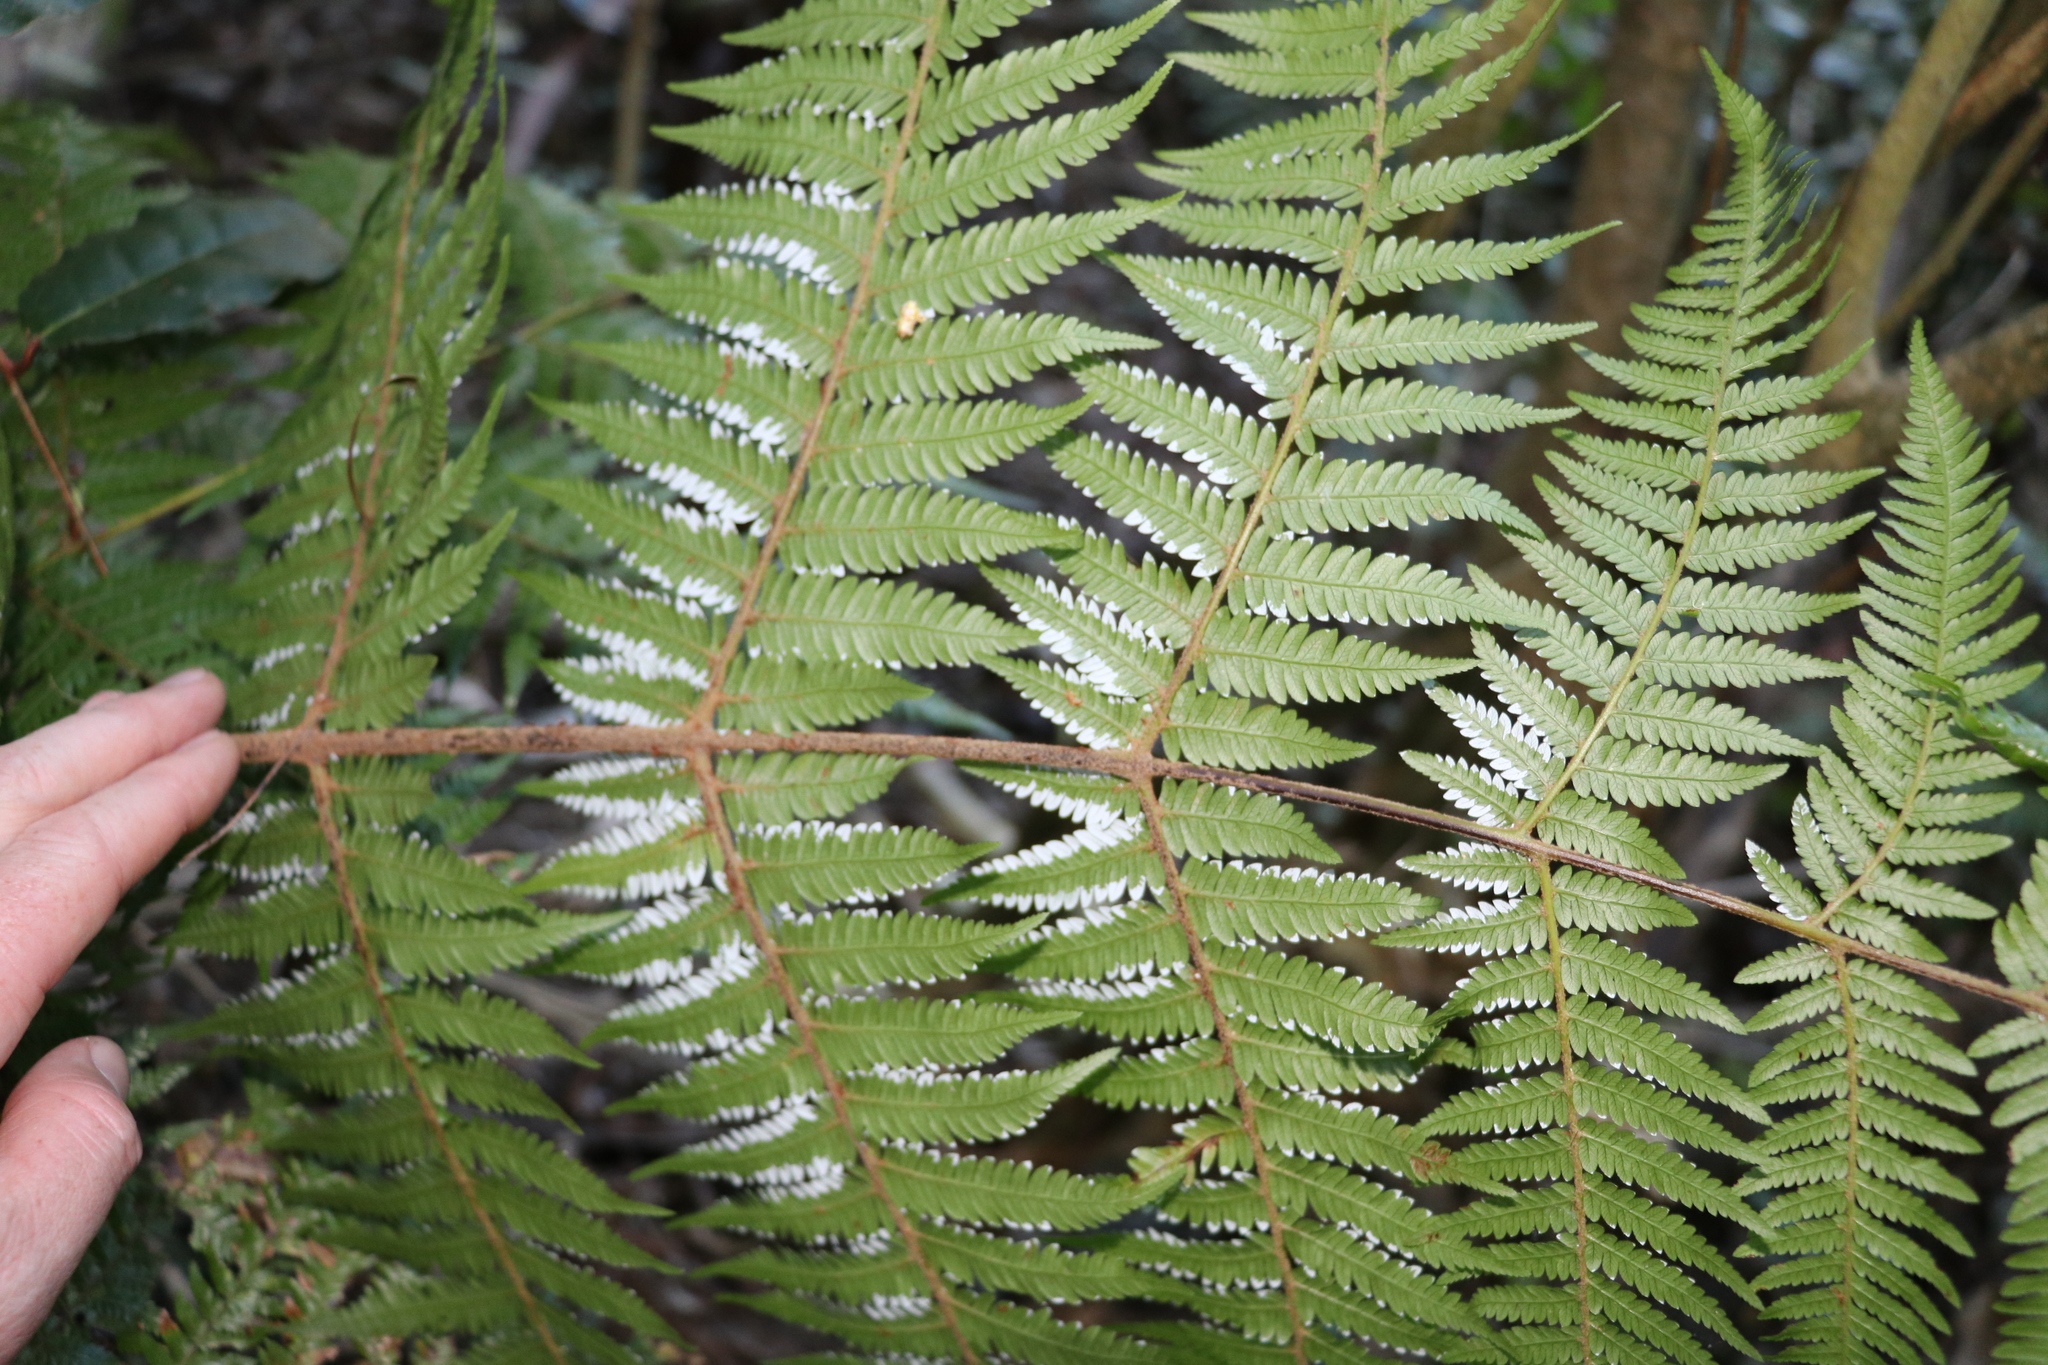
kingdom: Plantae
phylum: Tracheophyta
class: Polypodiopsida
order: Cyatheales
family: Cyatheaceae
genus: Alsophila
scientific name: Alsophila dealbata
